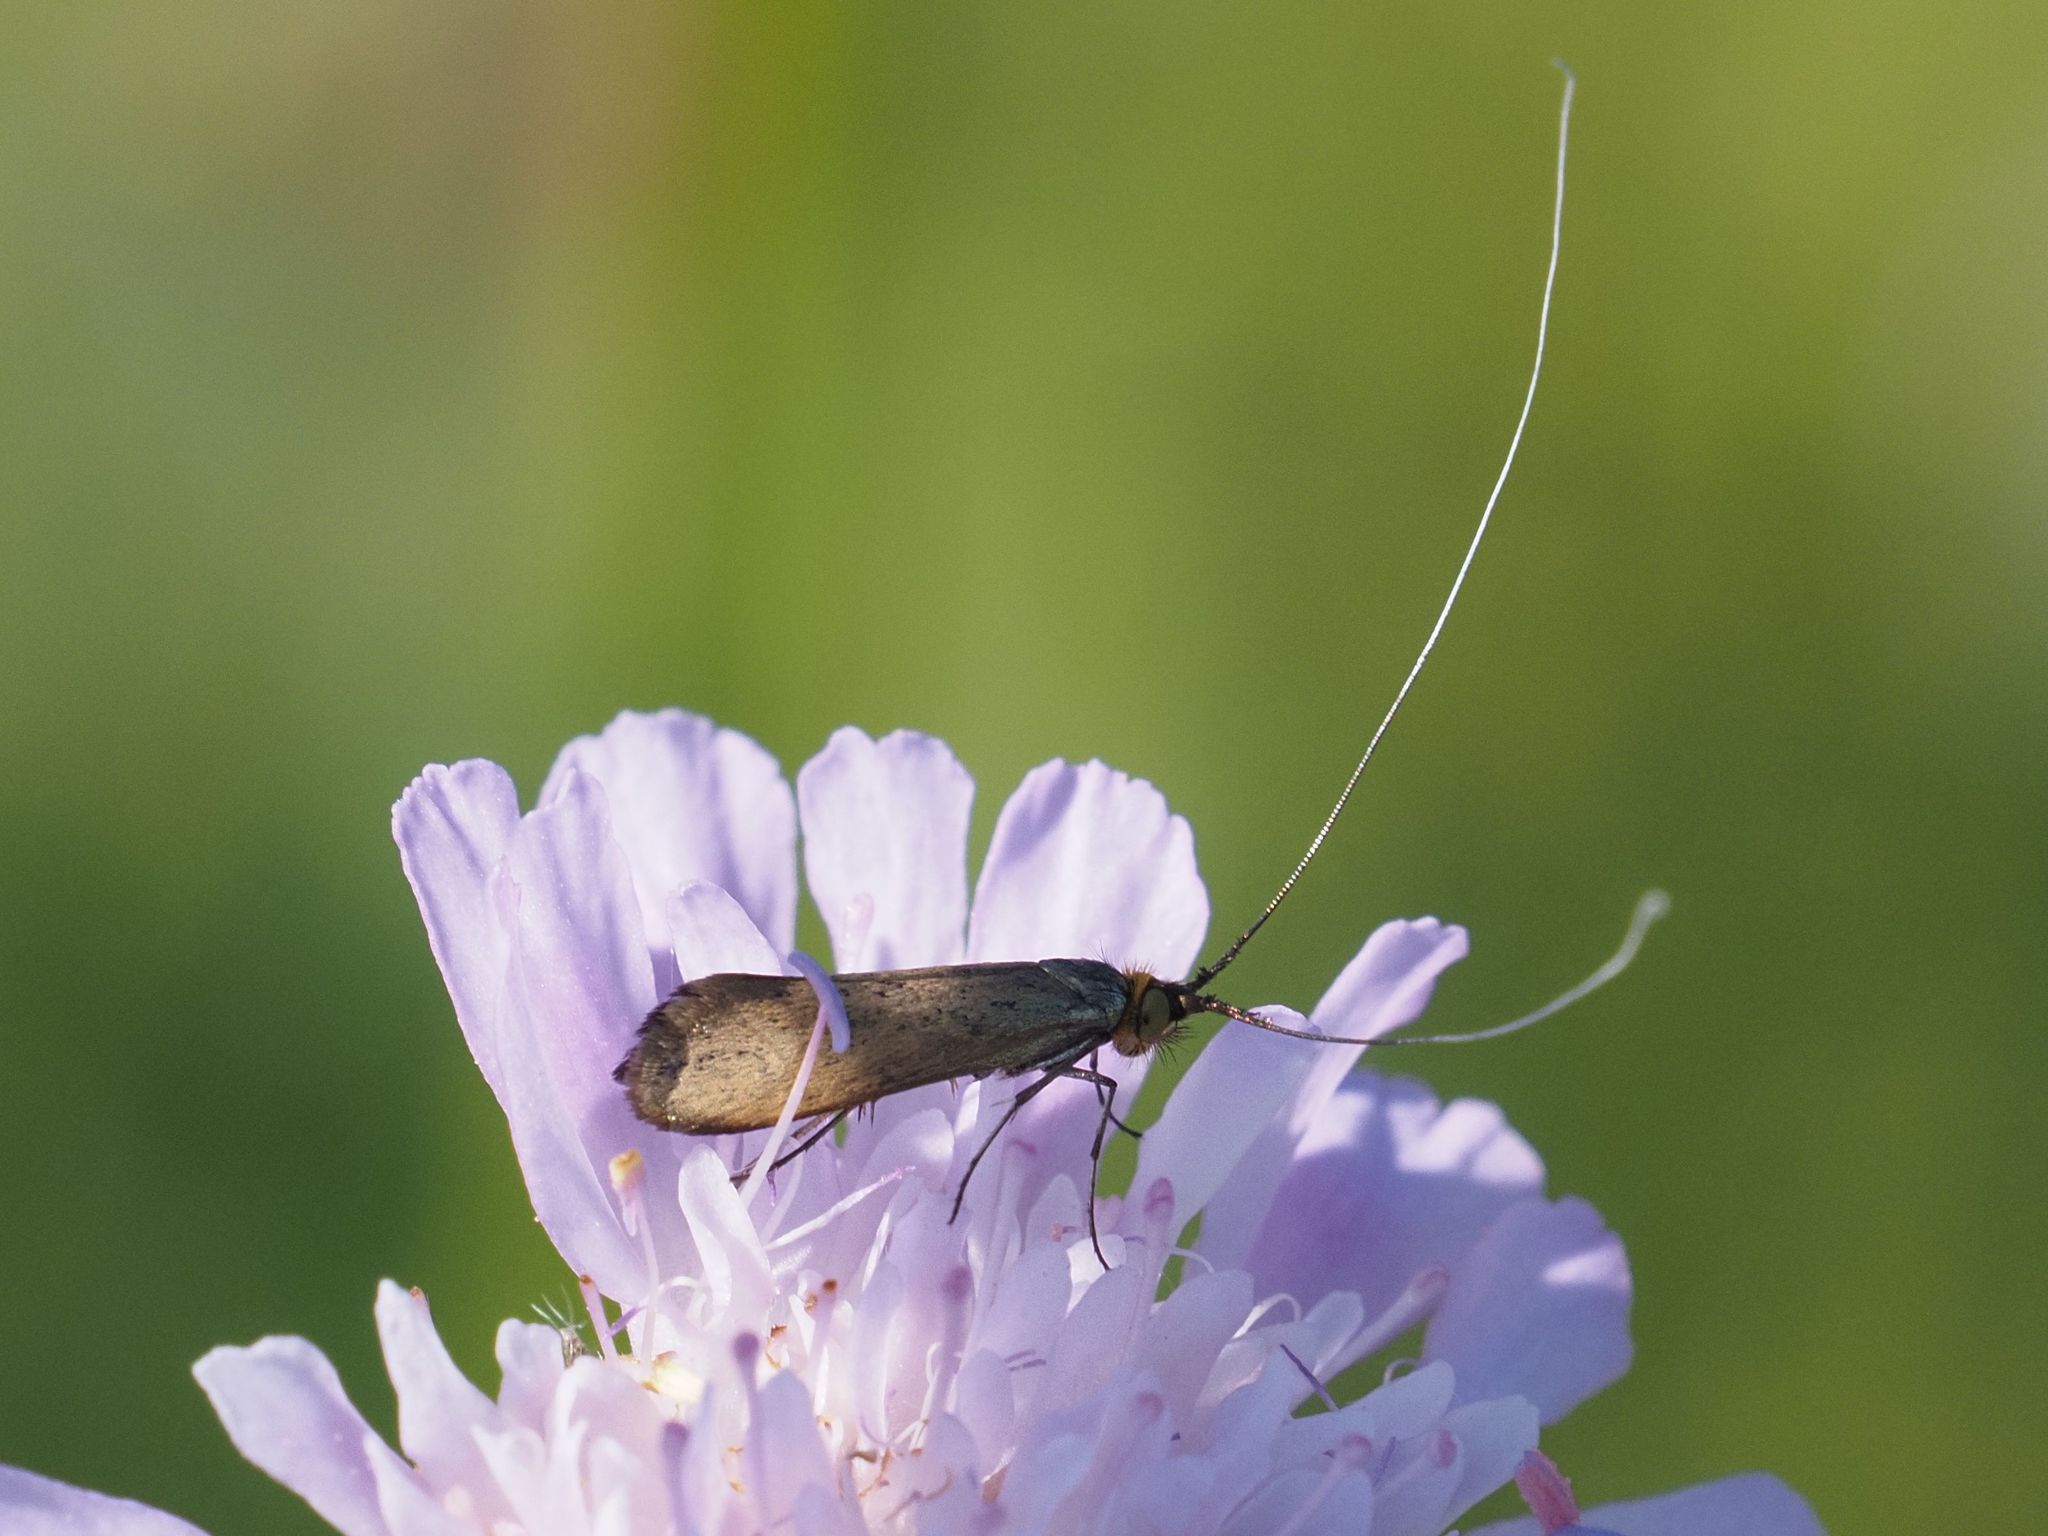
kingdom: Animalia
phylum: Arthropoda
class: Insecta
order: Lepidoptera
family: Adelidae
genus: Nemophora
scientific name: Nemophora metallica
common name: Brassy long-horn
